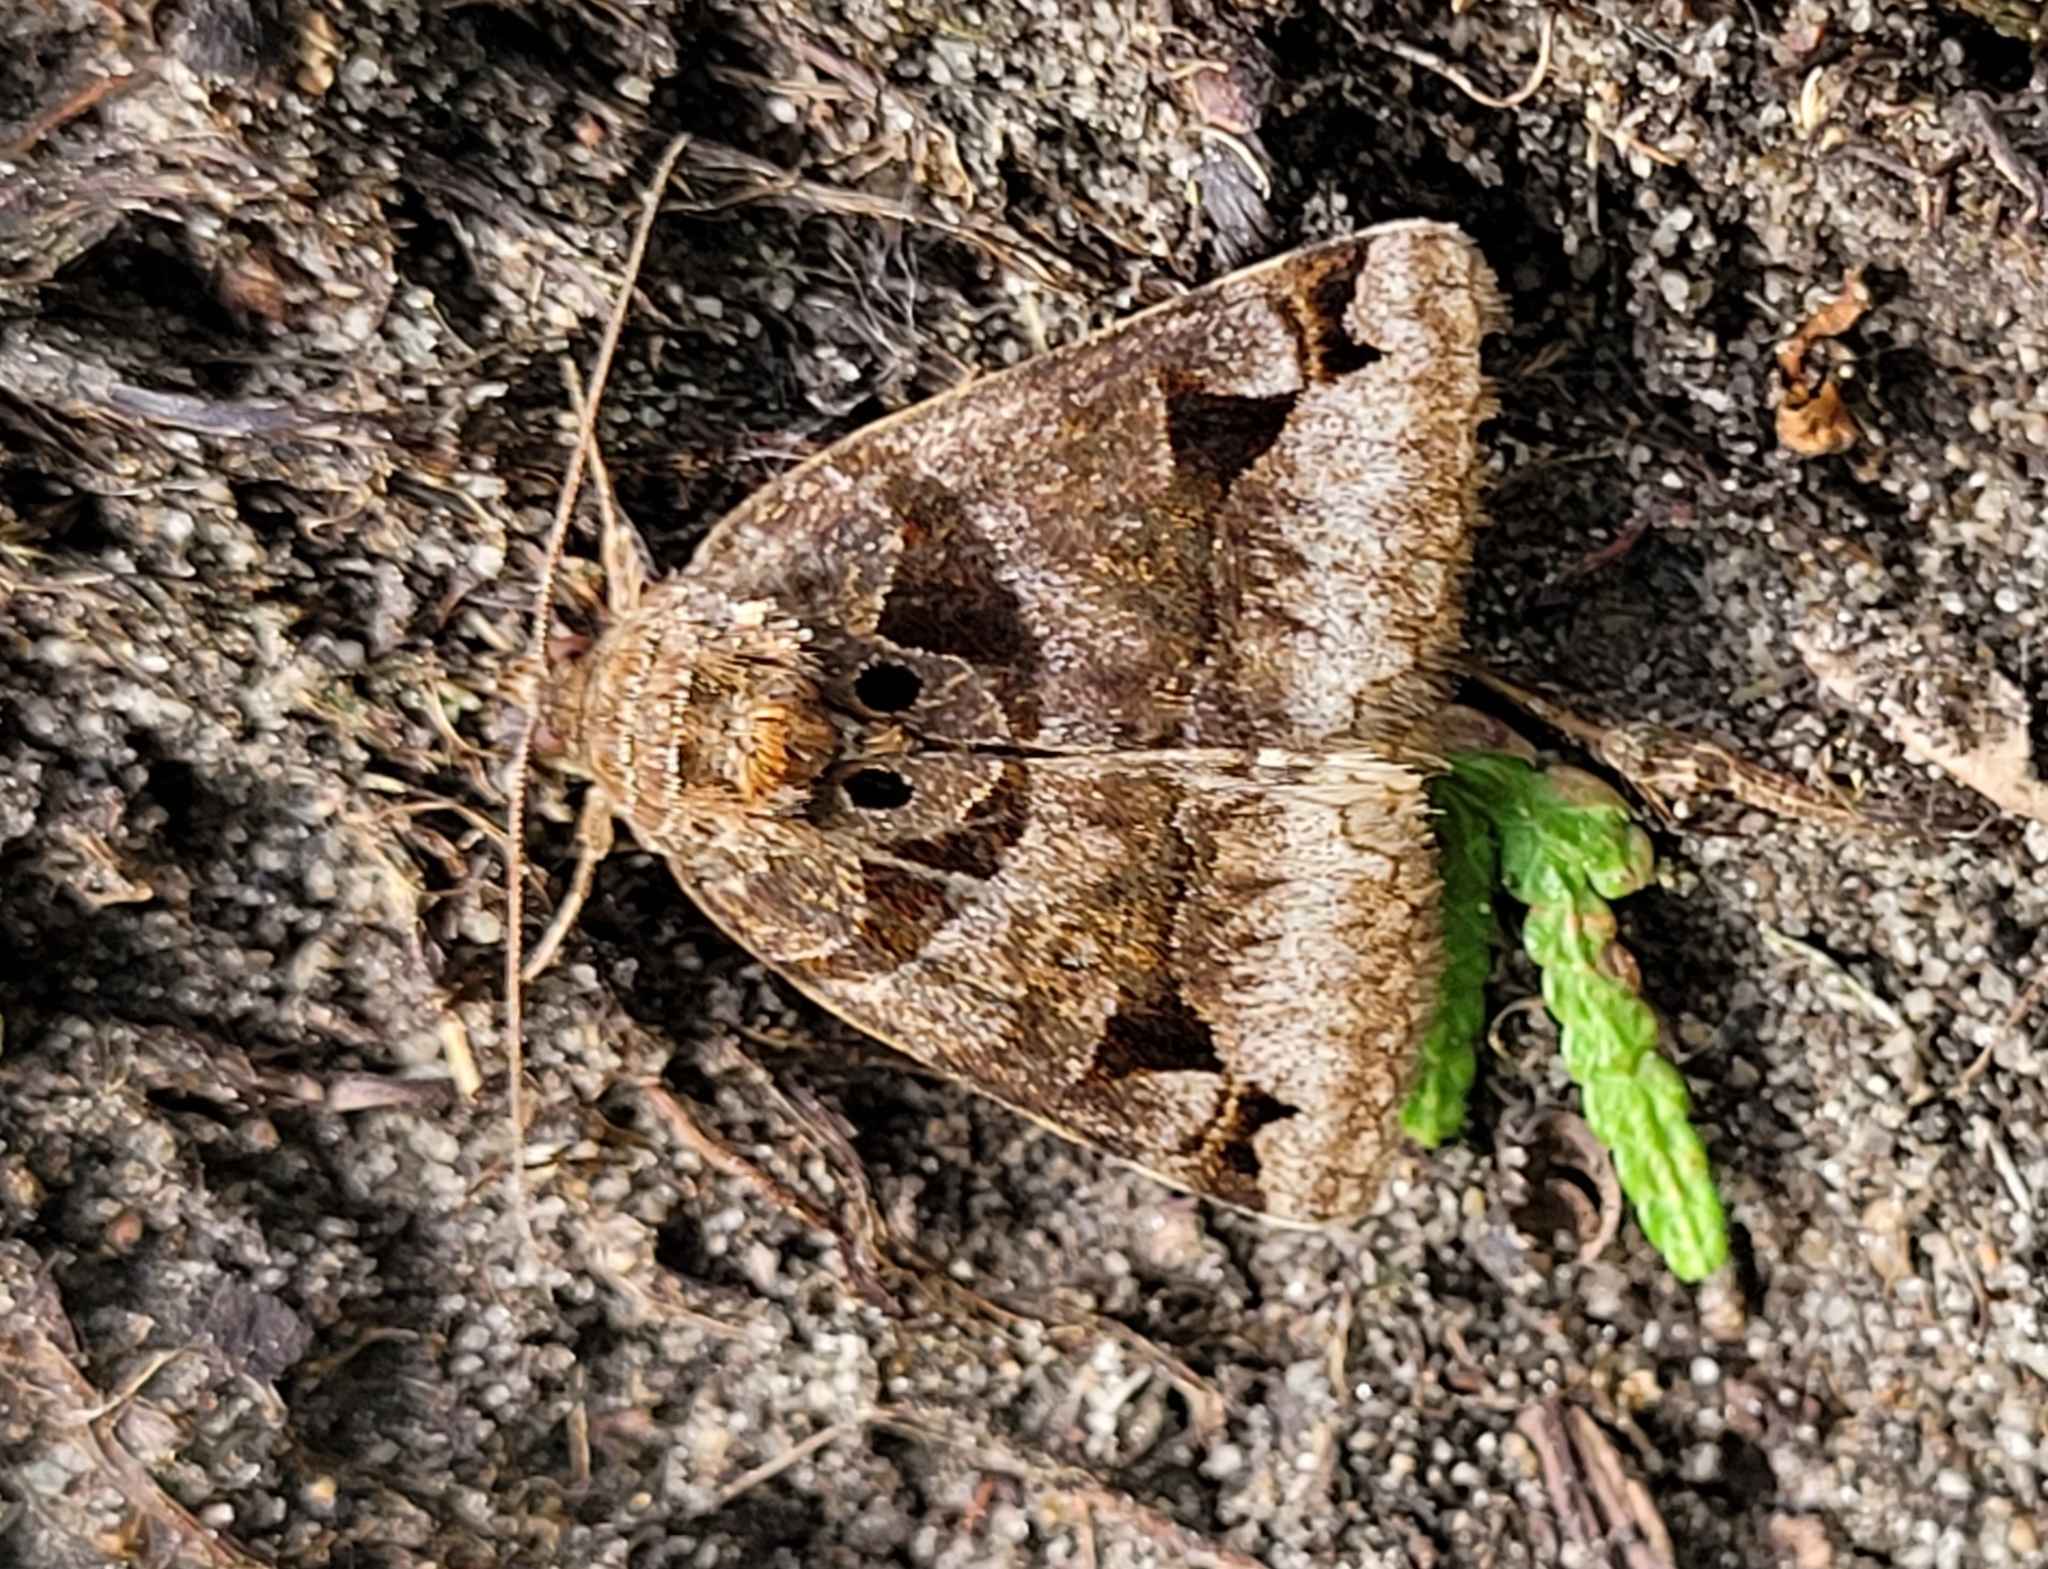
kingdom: Animalia
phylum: Arthropoda
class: Insecta
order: Lepidoptera
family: Erebidae
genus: Euclidia
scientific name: Euclidia cuspidea
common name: Toothed somberwing
